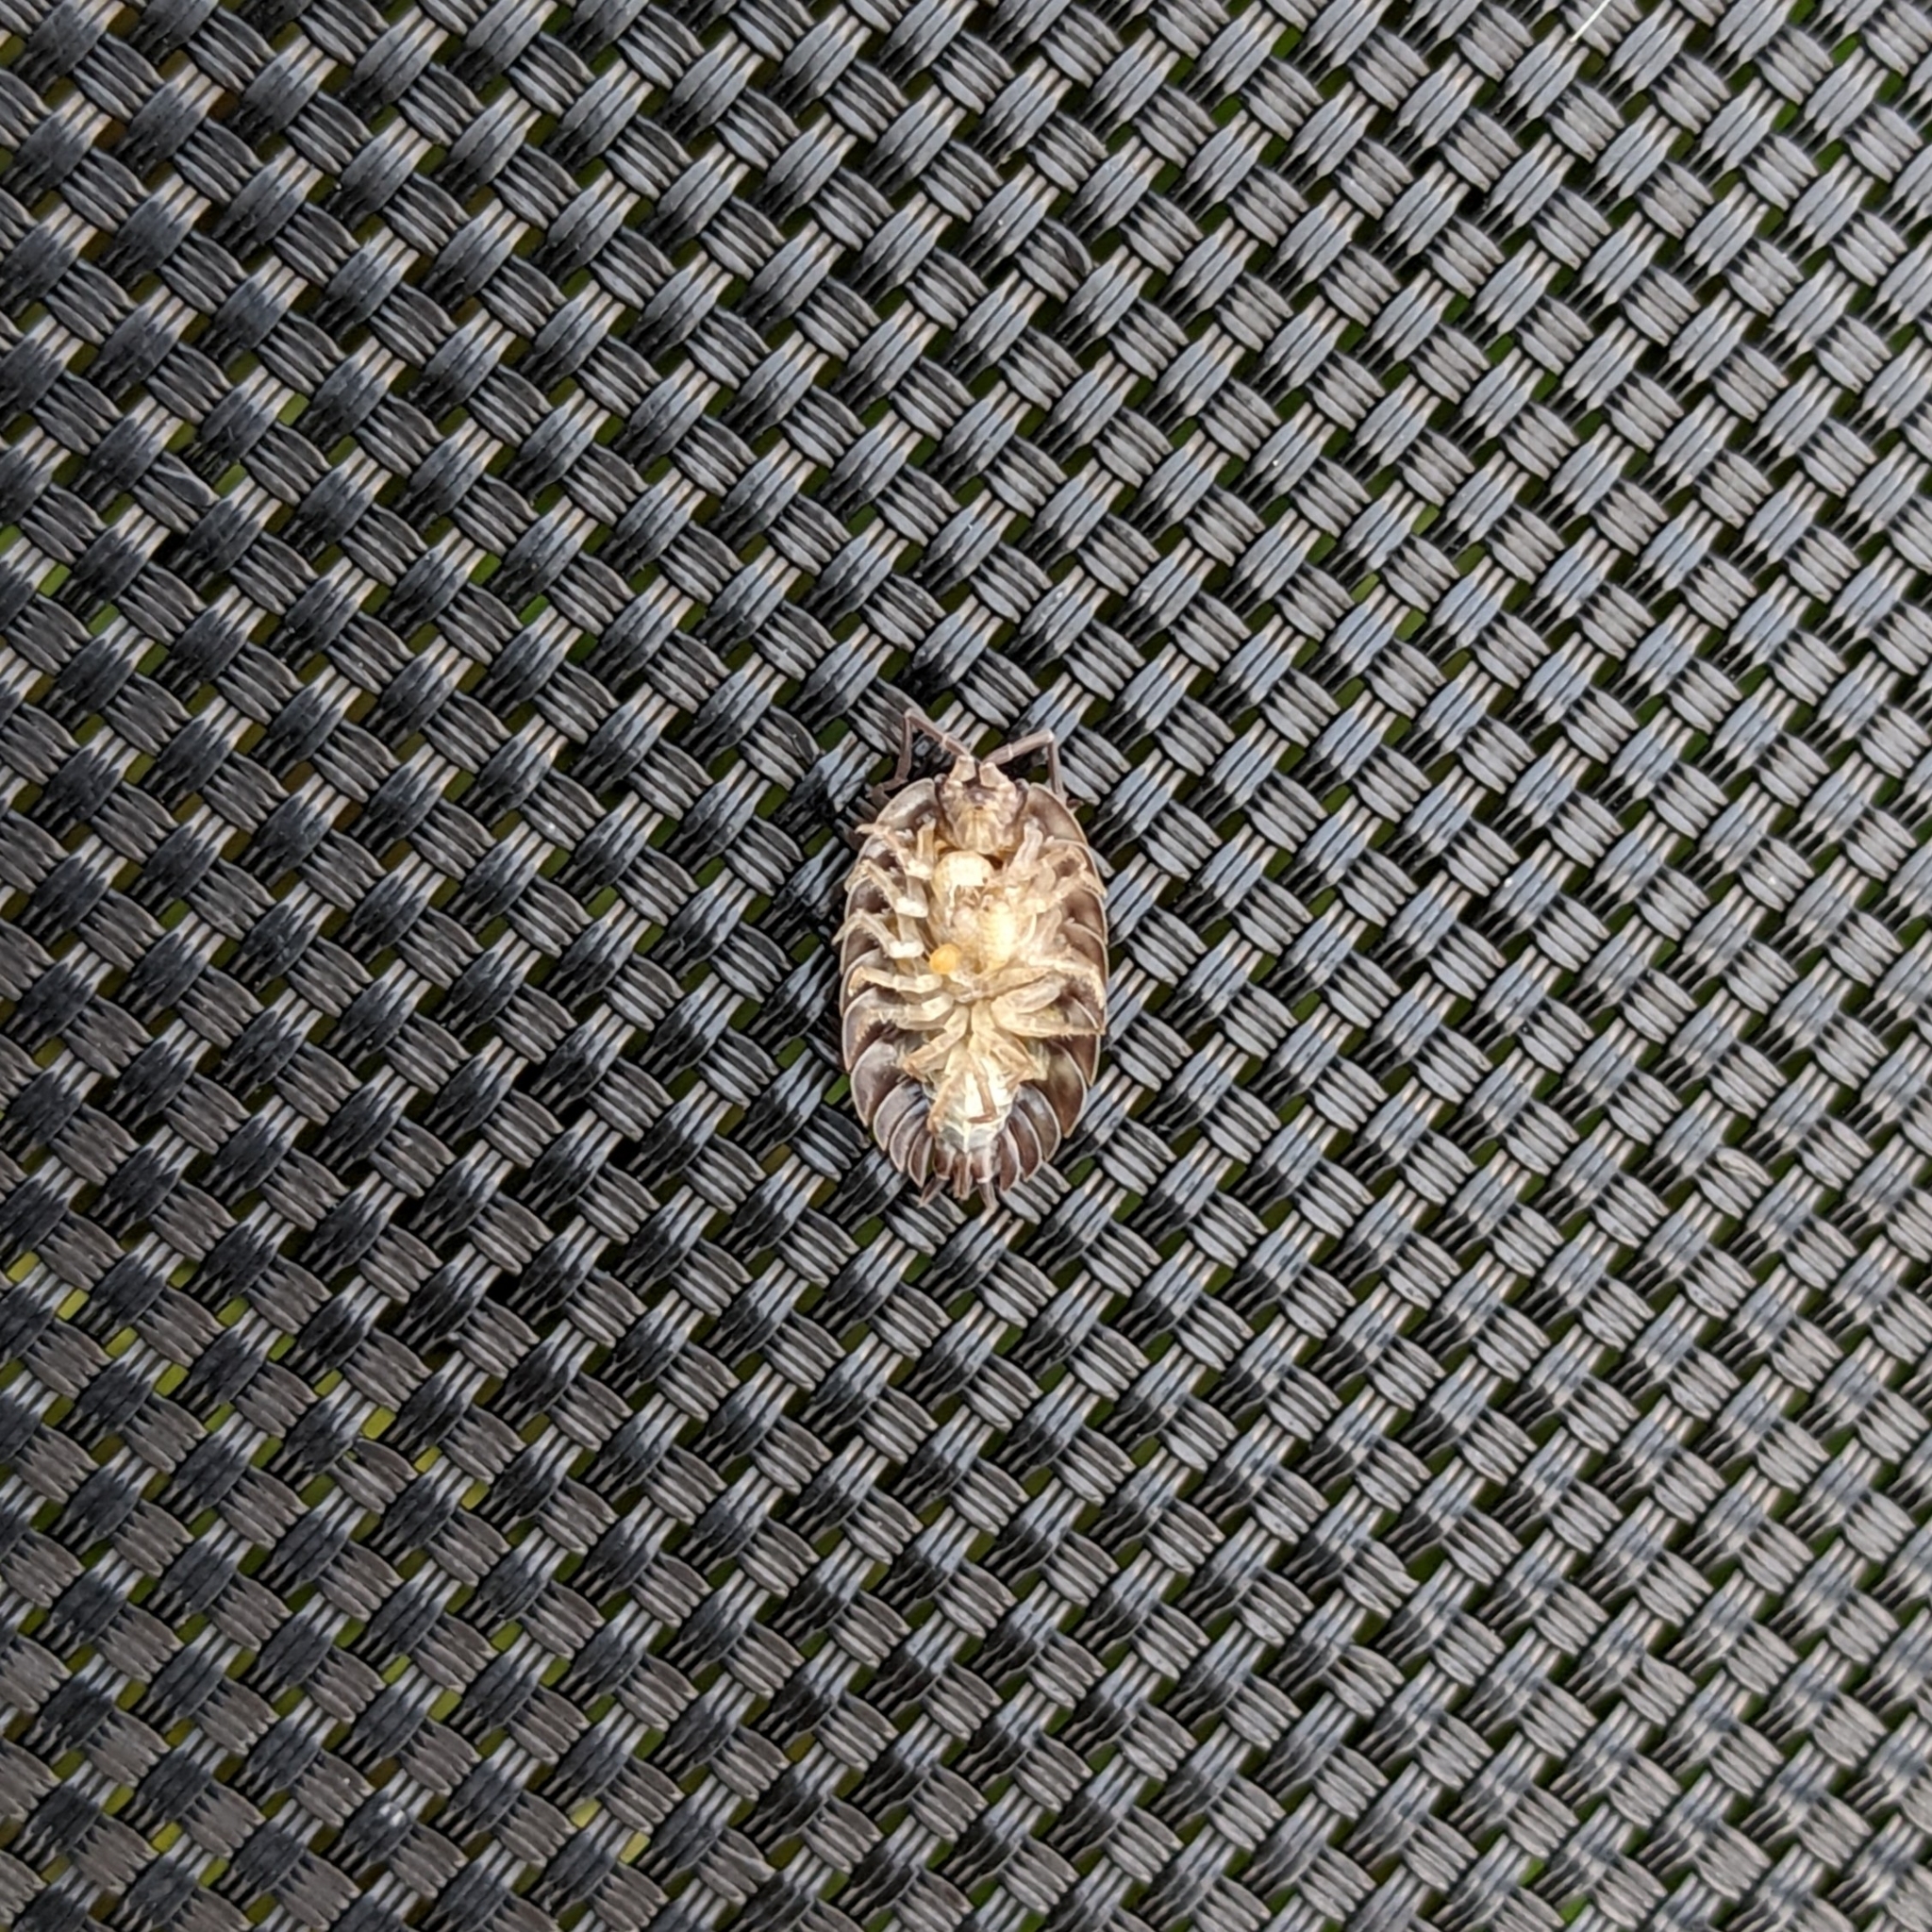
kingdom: Animalia
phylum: Arthropoda
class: Malacostraca
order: Isopoda
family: Oniscidae
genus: Oniscus
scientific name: Oniscus asellus
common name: Common shiny woodlouse
